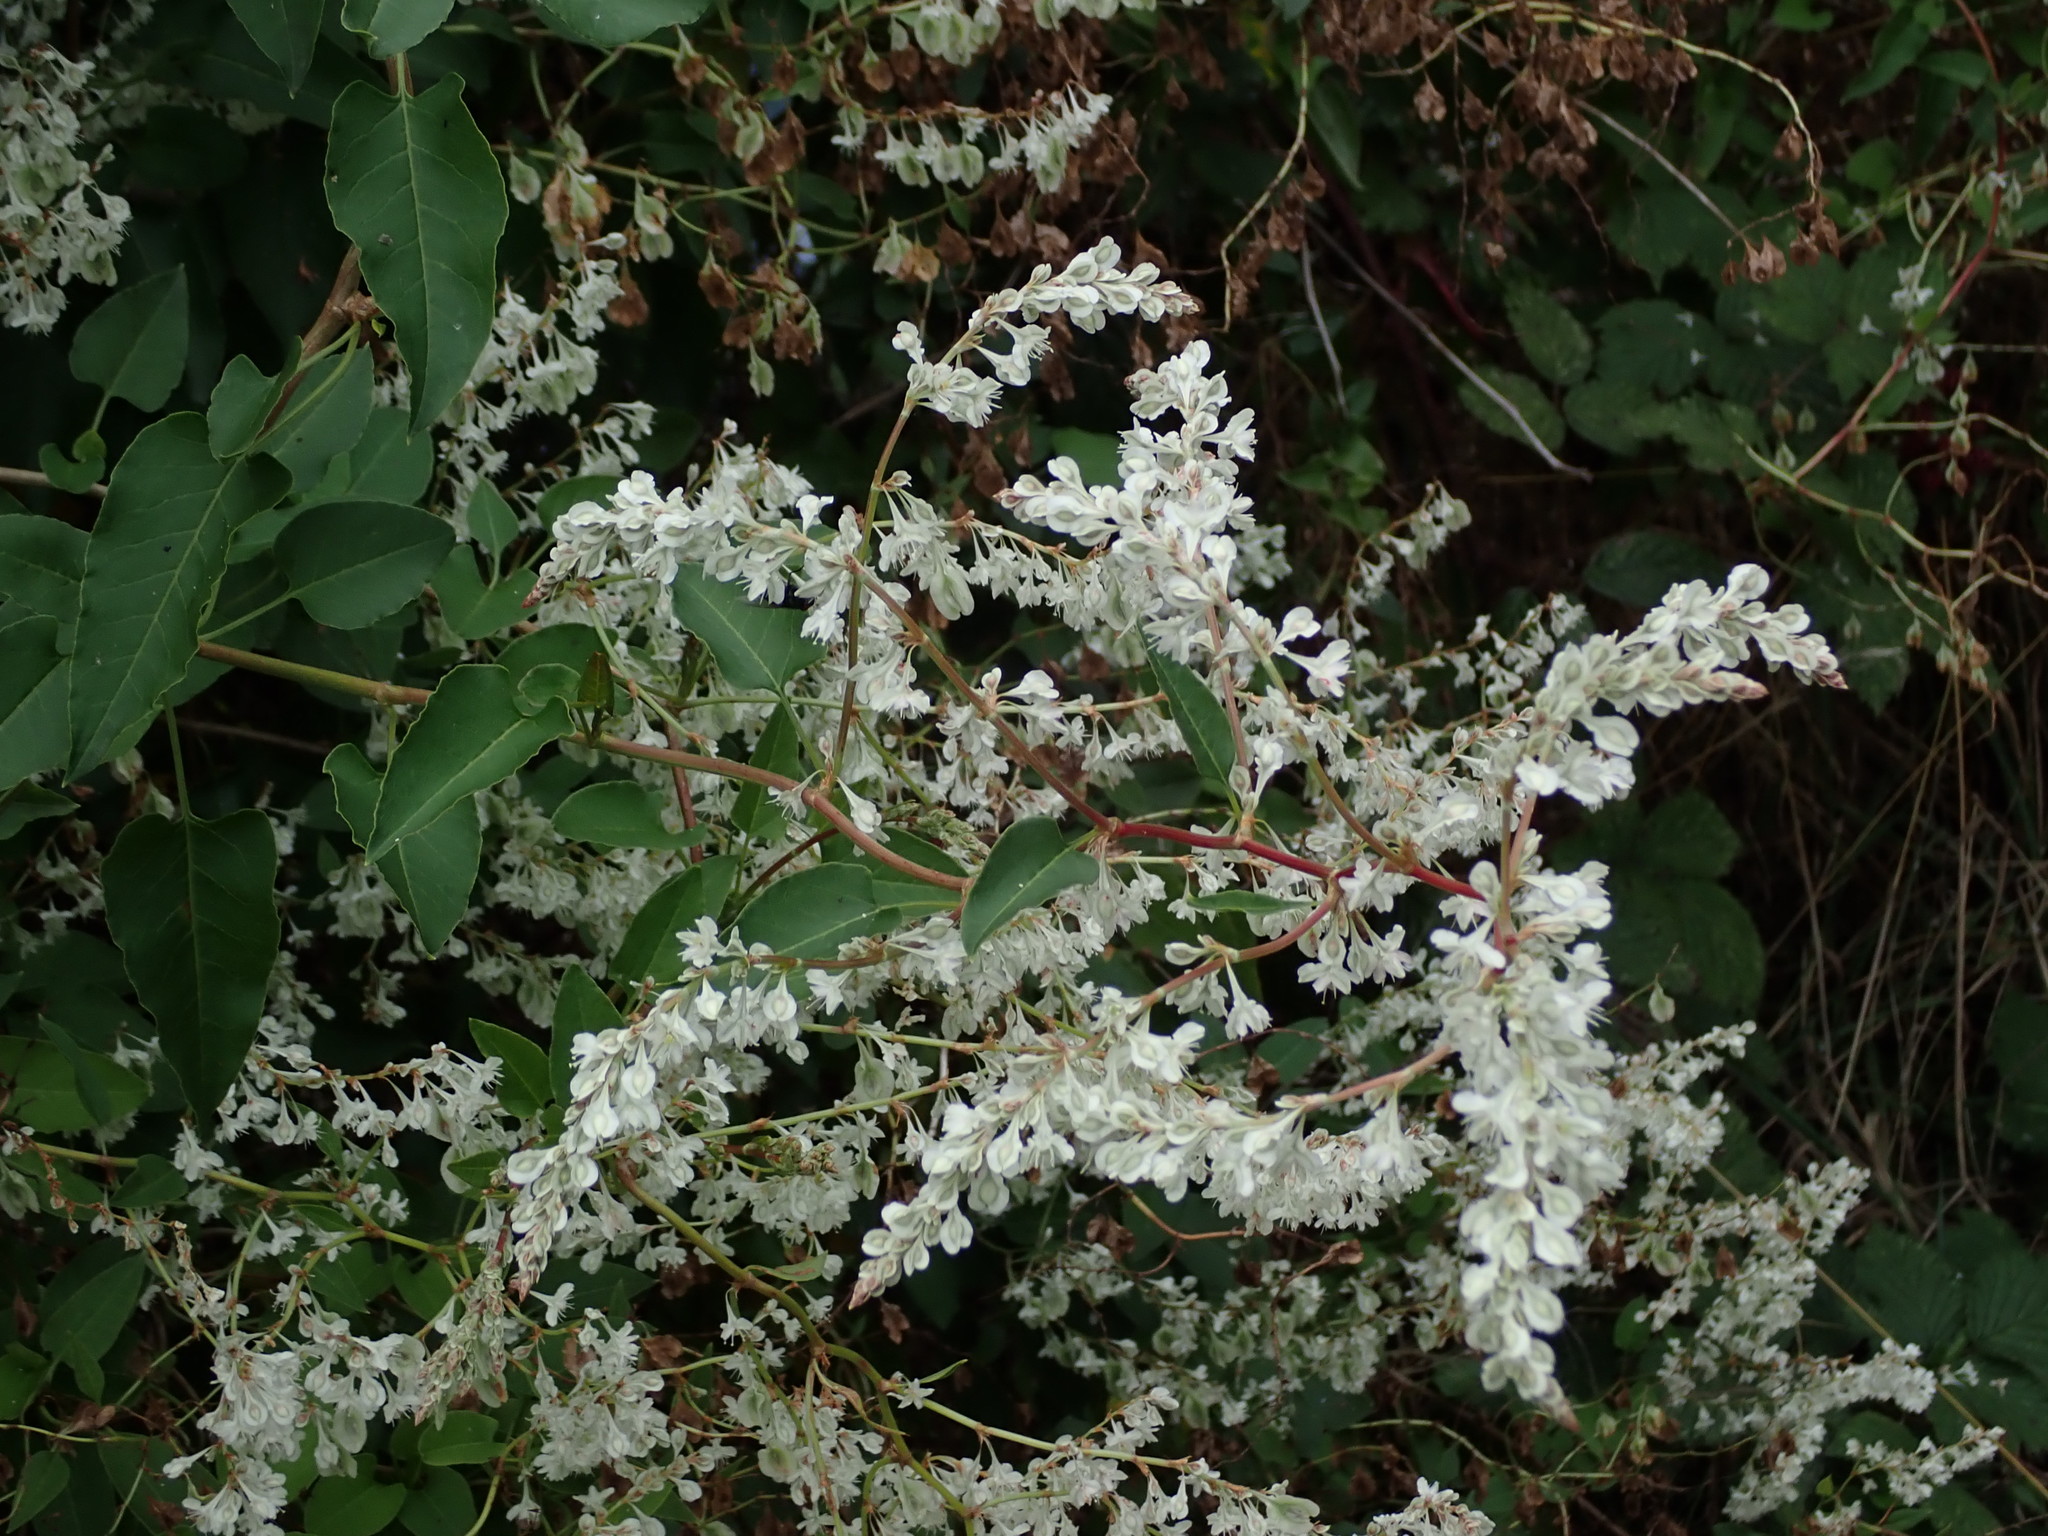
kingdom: Plantae
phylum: Tracheophyta
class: Magnoliopsida
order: Caryophyllales
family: Polygonaceae
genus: Fallopia
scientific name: Fallopia baldschuanica
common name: Russian-vine
